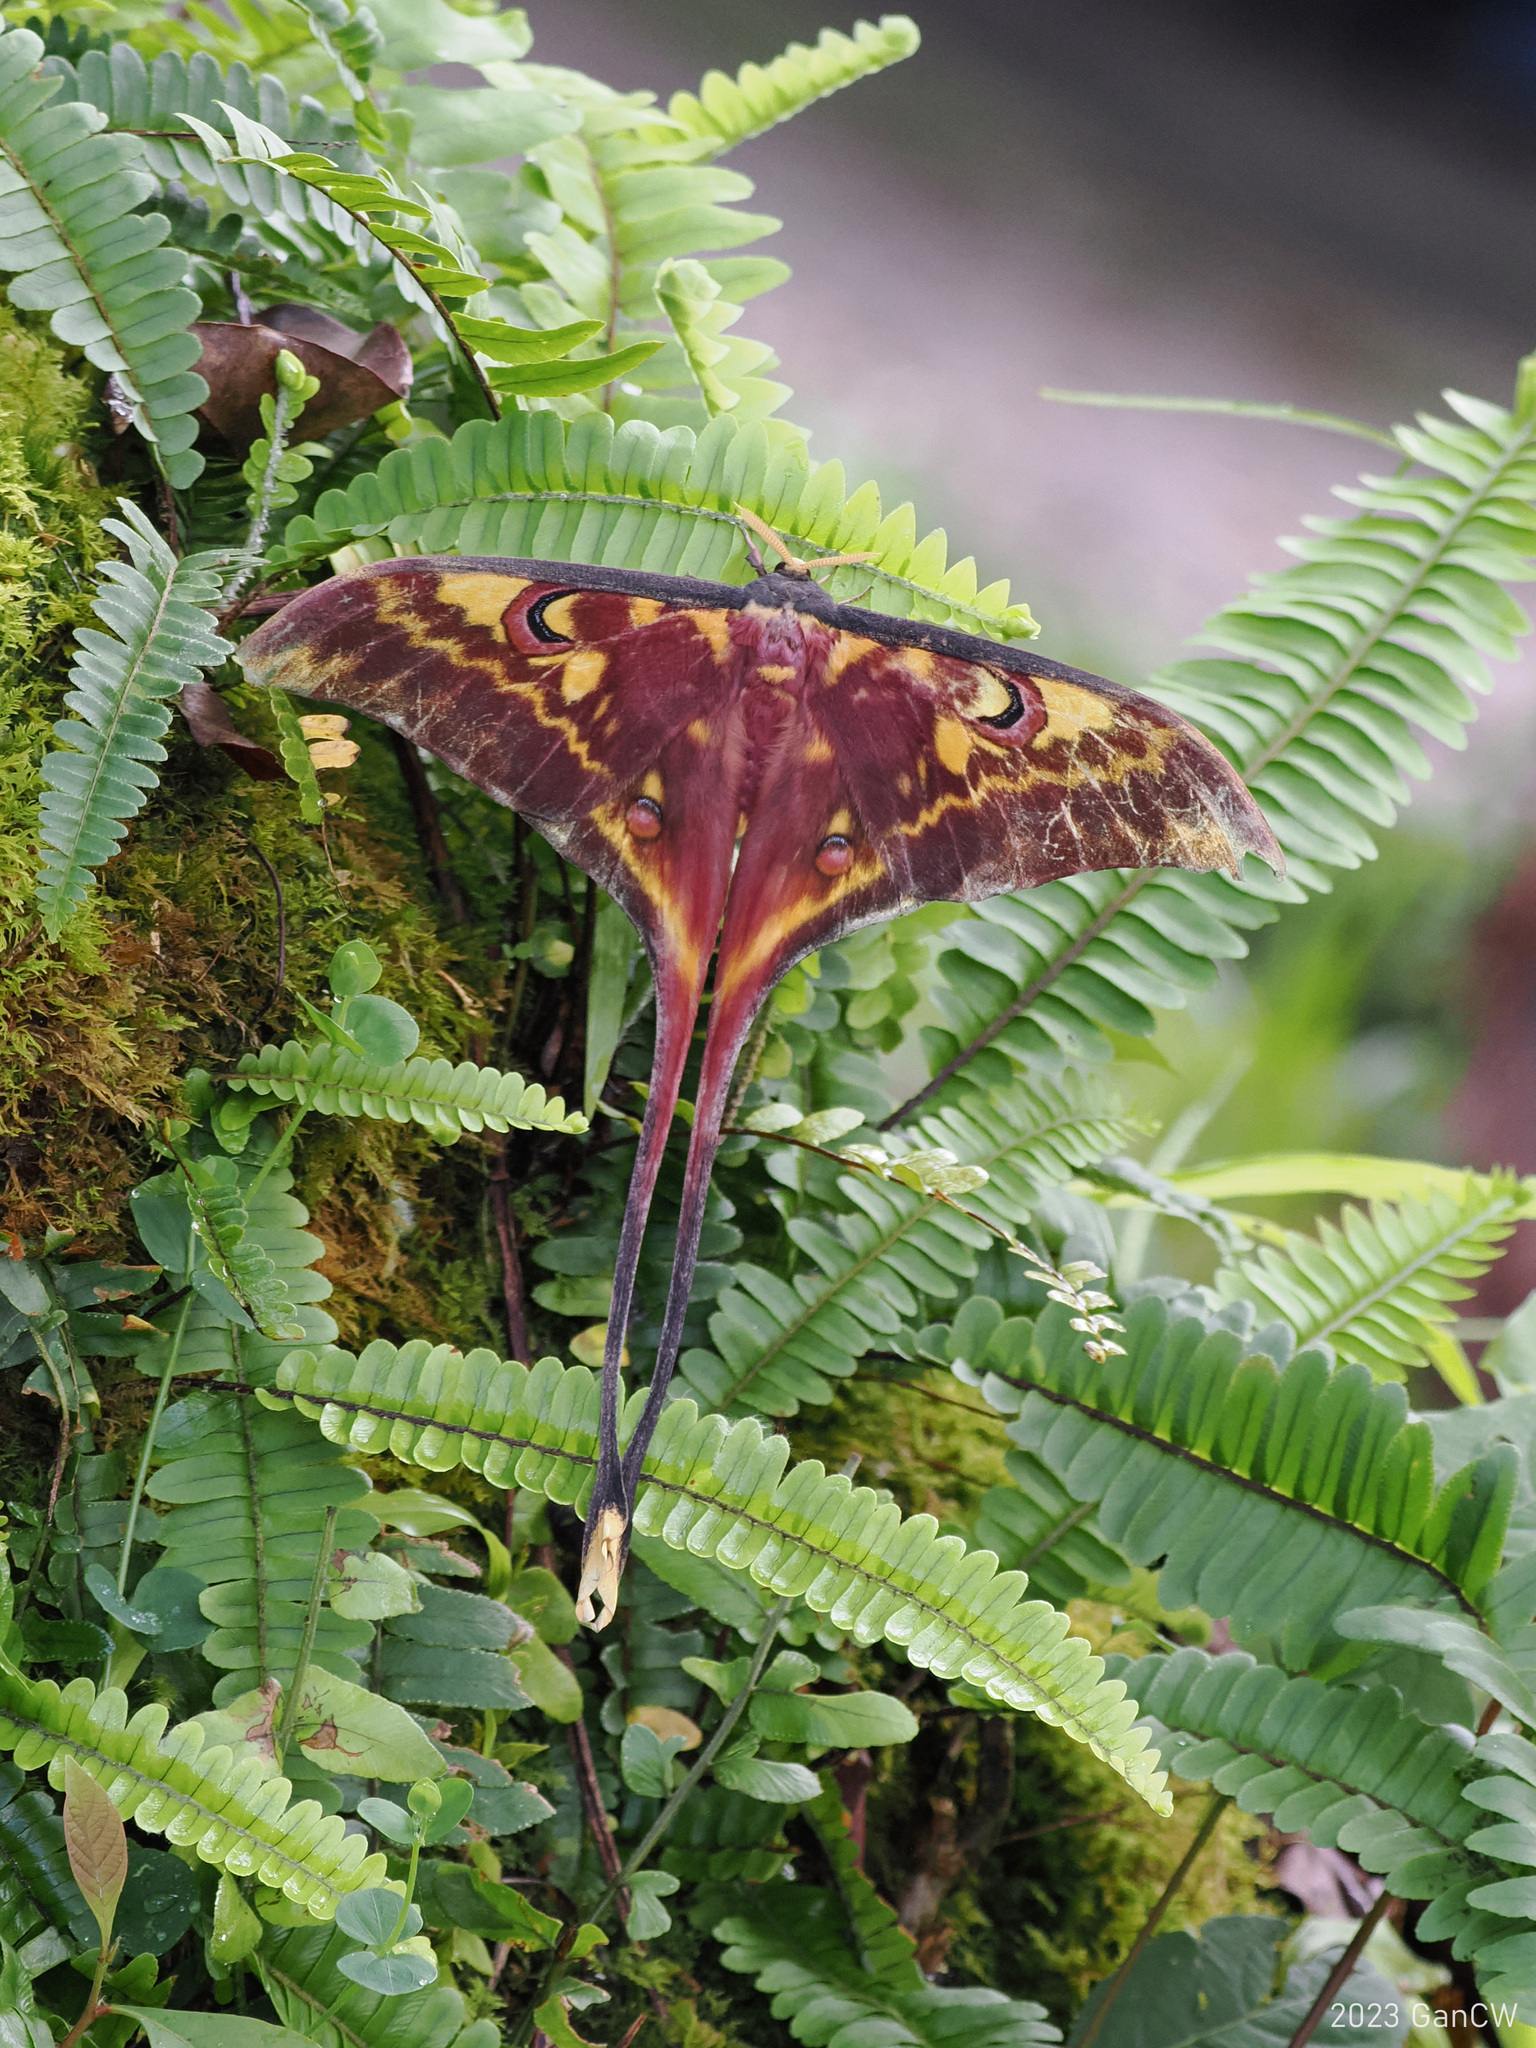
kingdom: Animalia
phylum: Arthropoda
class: Insecta
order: Lepidoptera
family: Saturniidae
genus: Actias
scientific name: Actias isis
